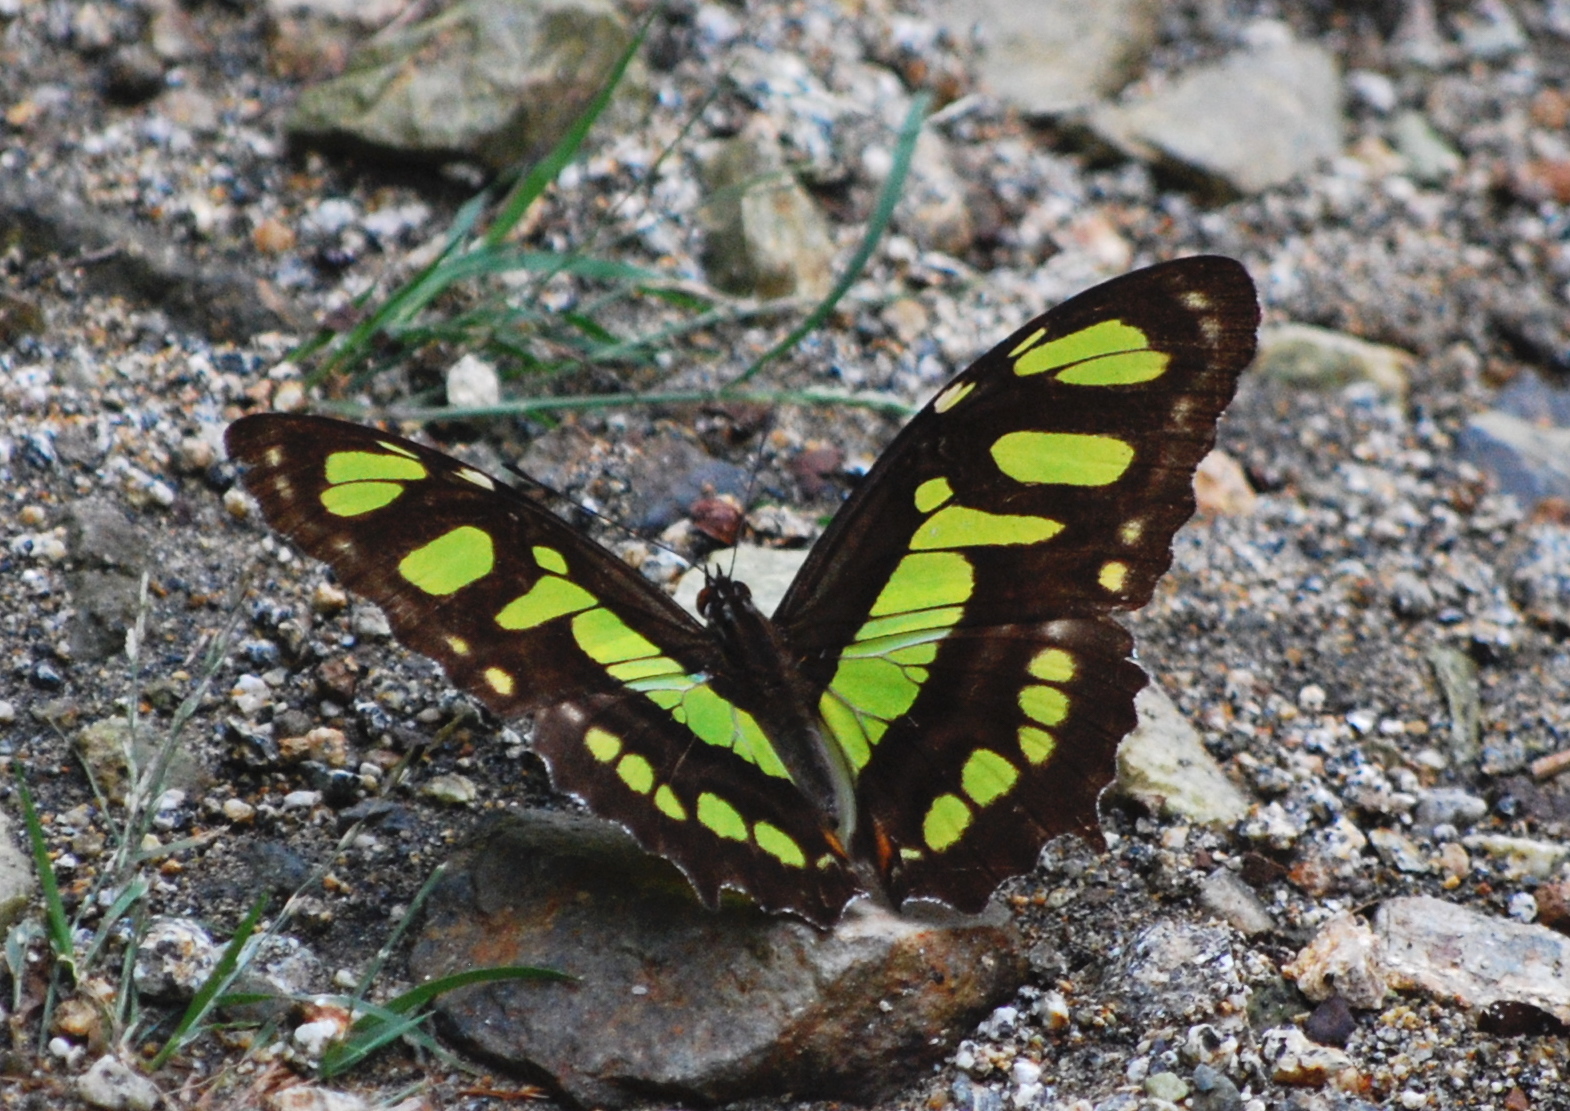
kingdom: Animalia
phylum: Arthropoda
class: Insecta
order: Lepidoptera
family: Nymphalidae
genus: Siproeta
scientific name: Siproeta stelenes
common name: Malachite
